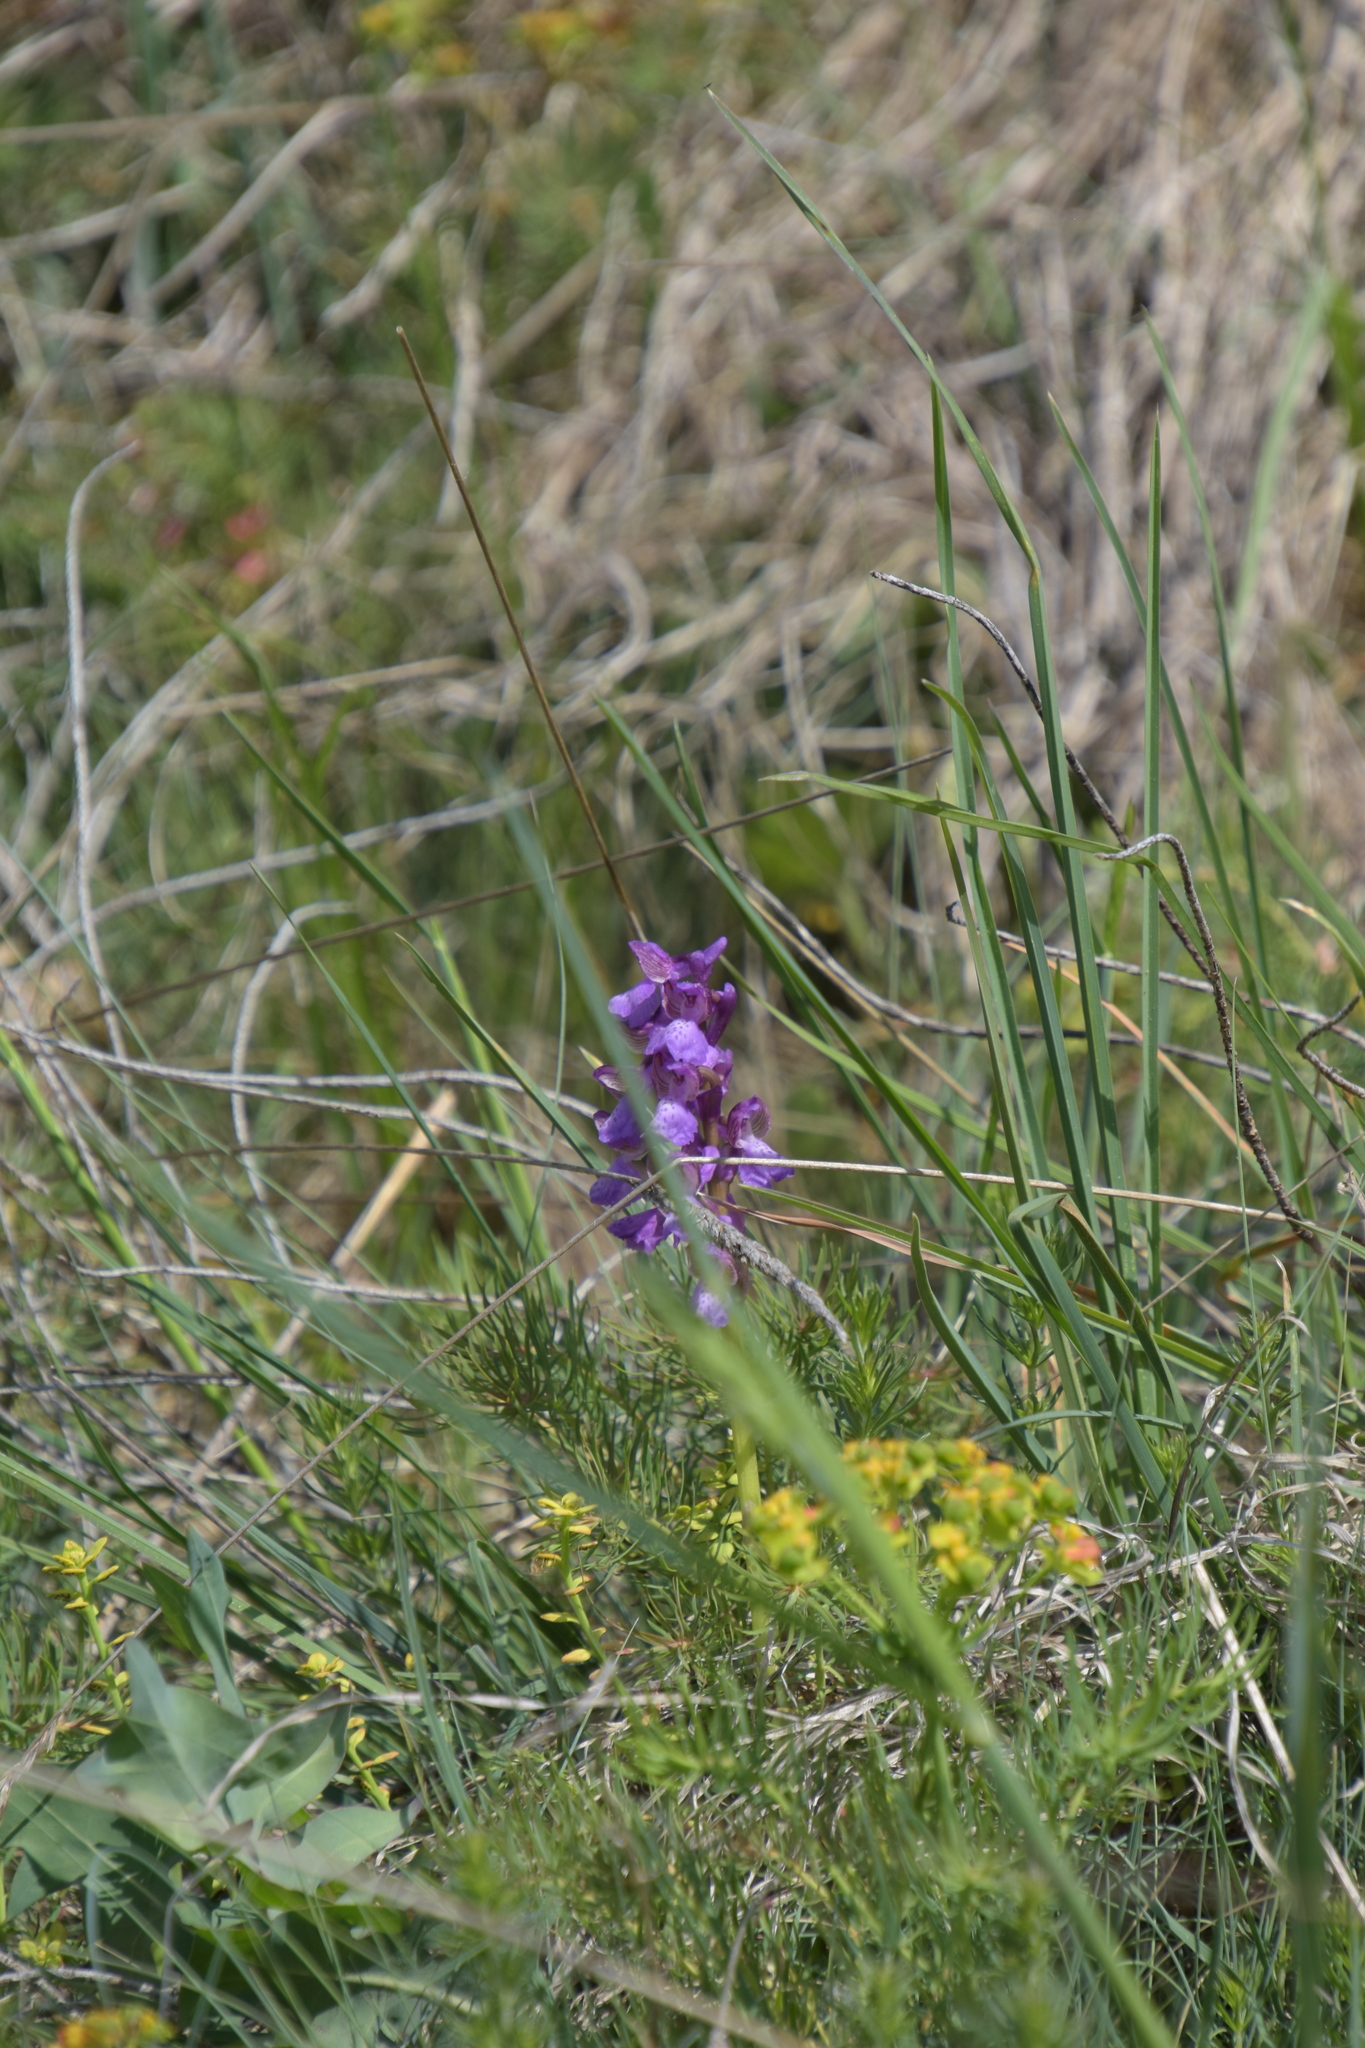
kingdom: Plantae
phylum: Tracheophyta
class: Liliopsida
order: Asparagales
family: Orchidaceae
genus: Anacamptis
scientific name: Anacamptis morio
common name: Green-winged orchid
